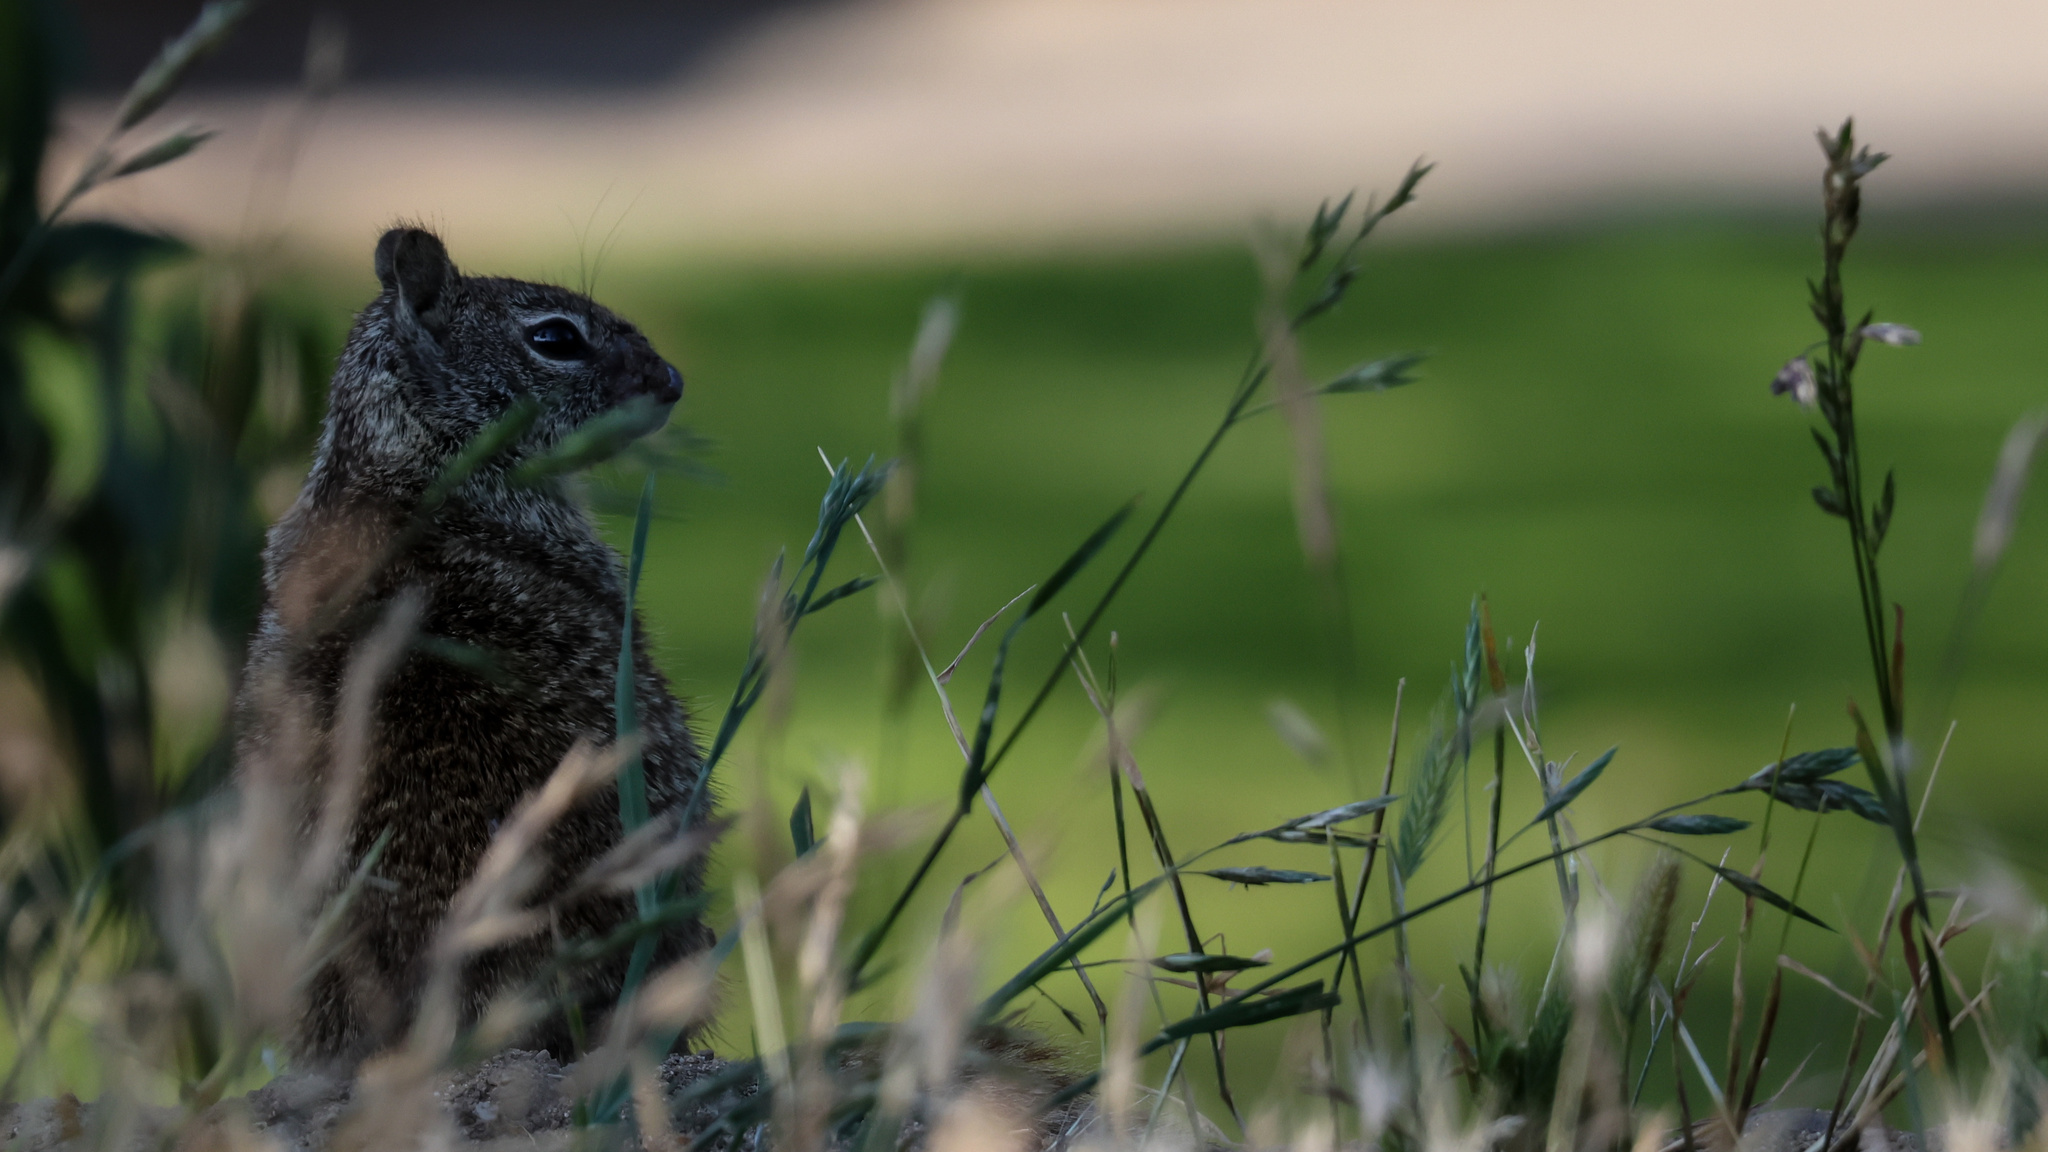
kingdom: Animalia
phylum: Chordata
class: Mammalia
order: Rodentia
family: Sciuridae
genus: Otospermophilus
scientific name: Otospermophilus beecheyi
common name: California ground squirrel
